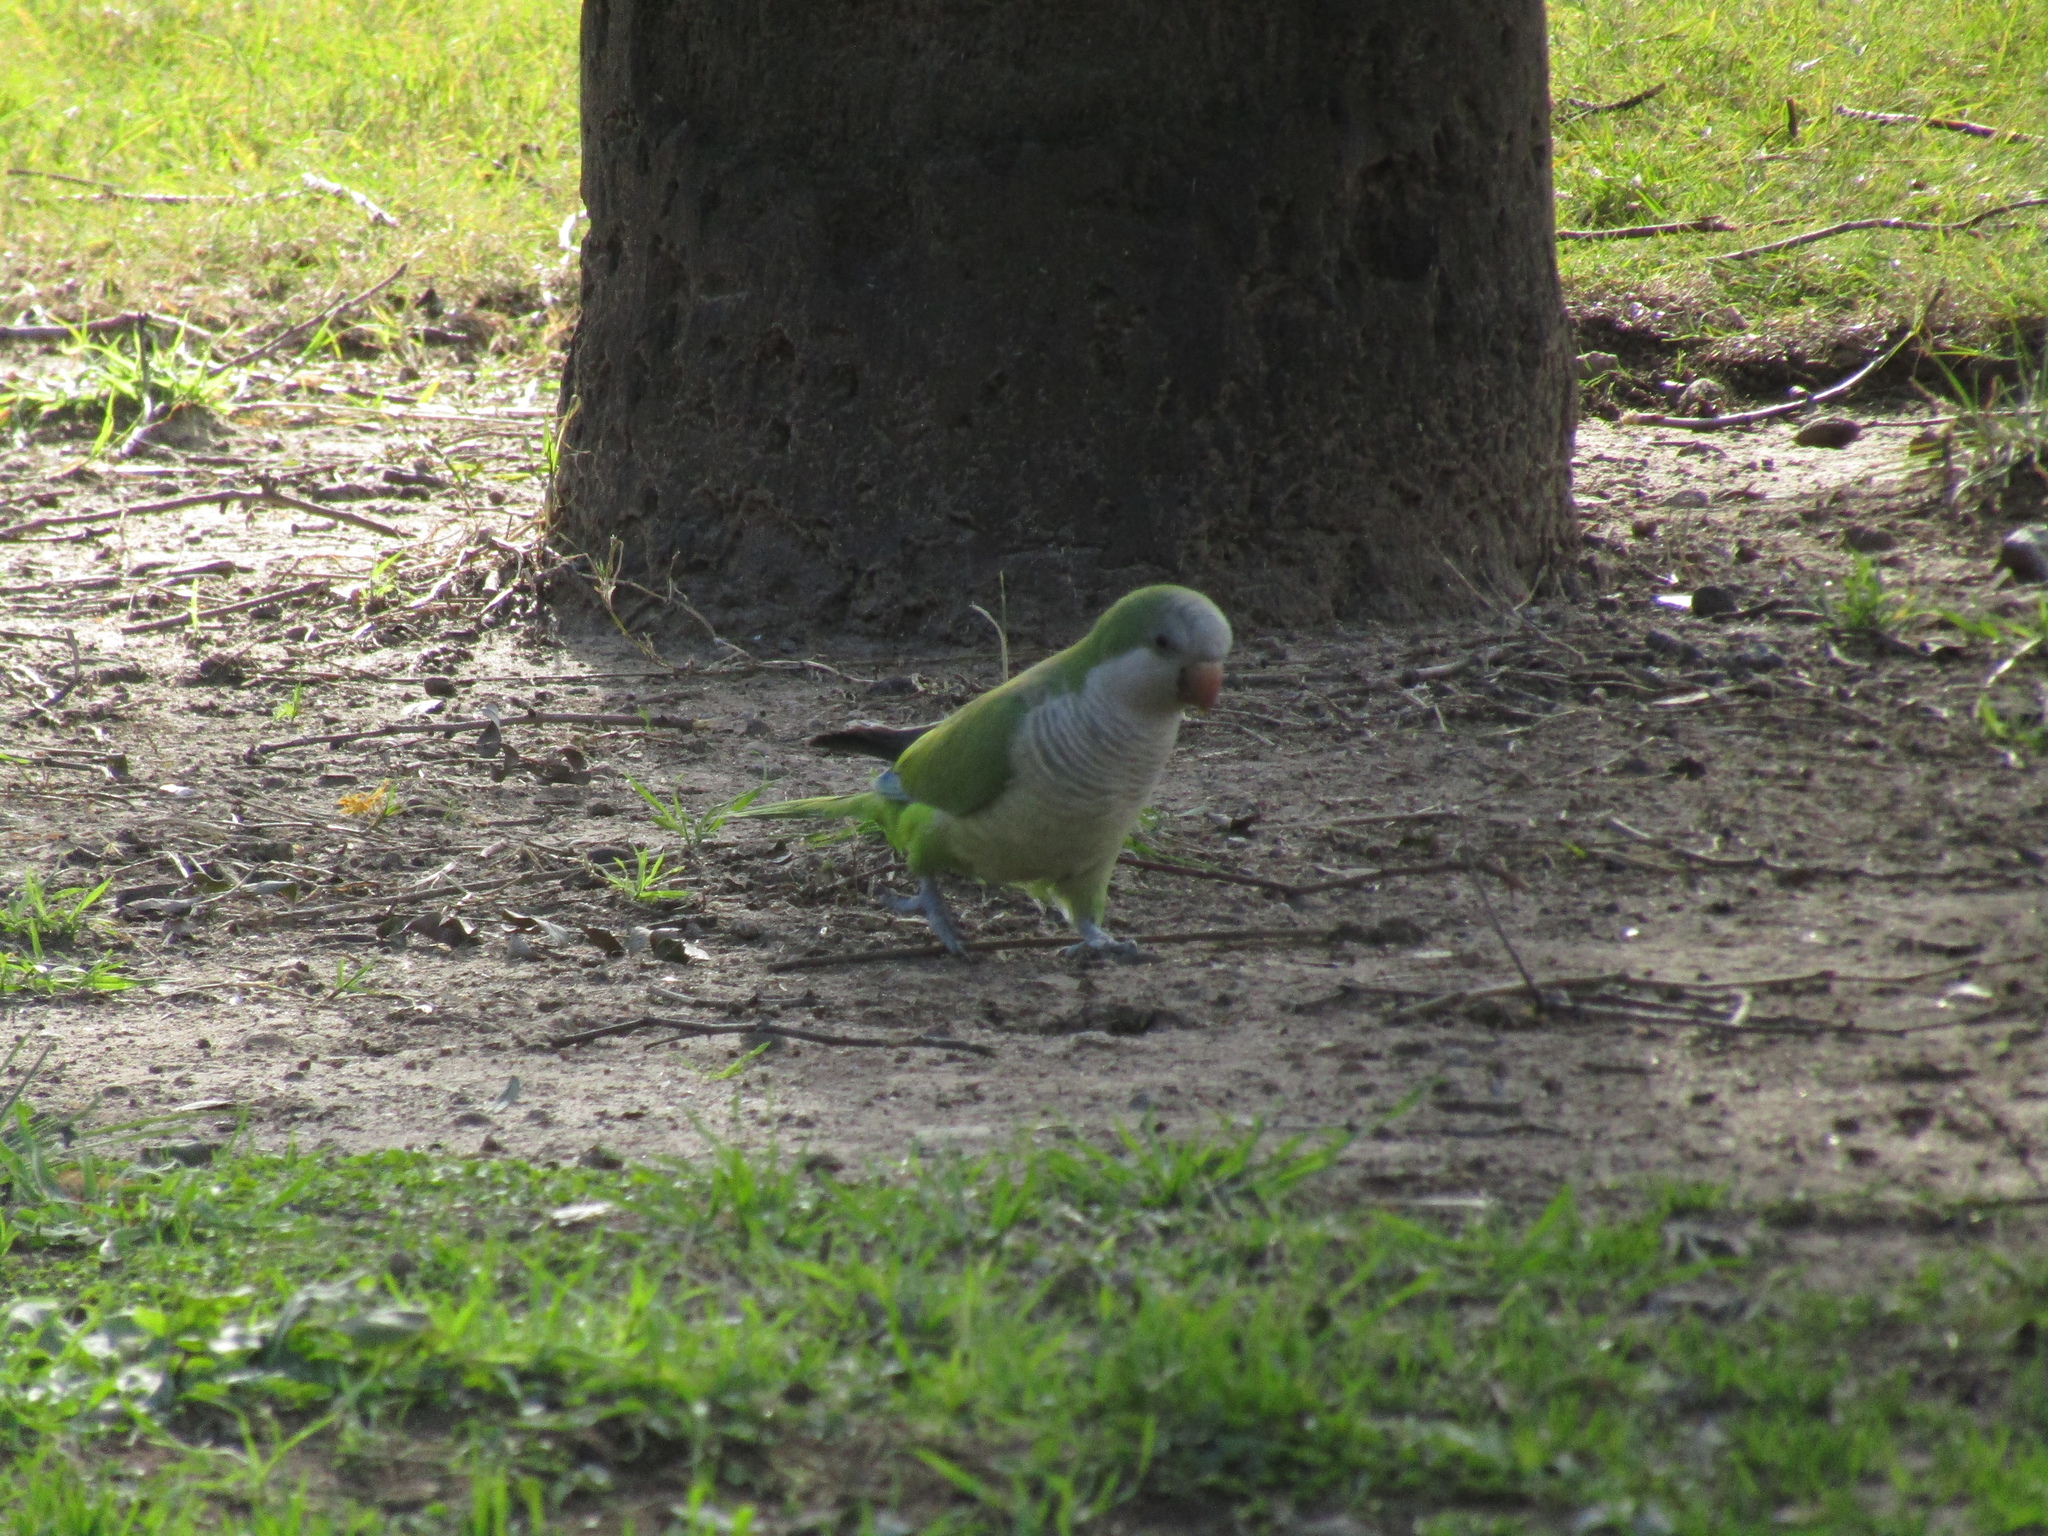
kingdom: Animalia
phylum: Chordata
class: Aves
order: Psittaciformes
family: Psittacidae
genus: Myiopsitta
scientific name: Myiopsitta monachus
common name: Monk parakeet
